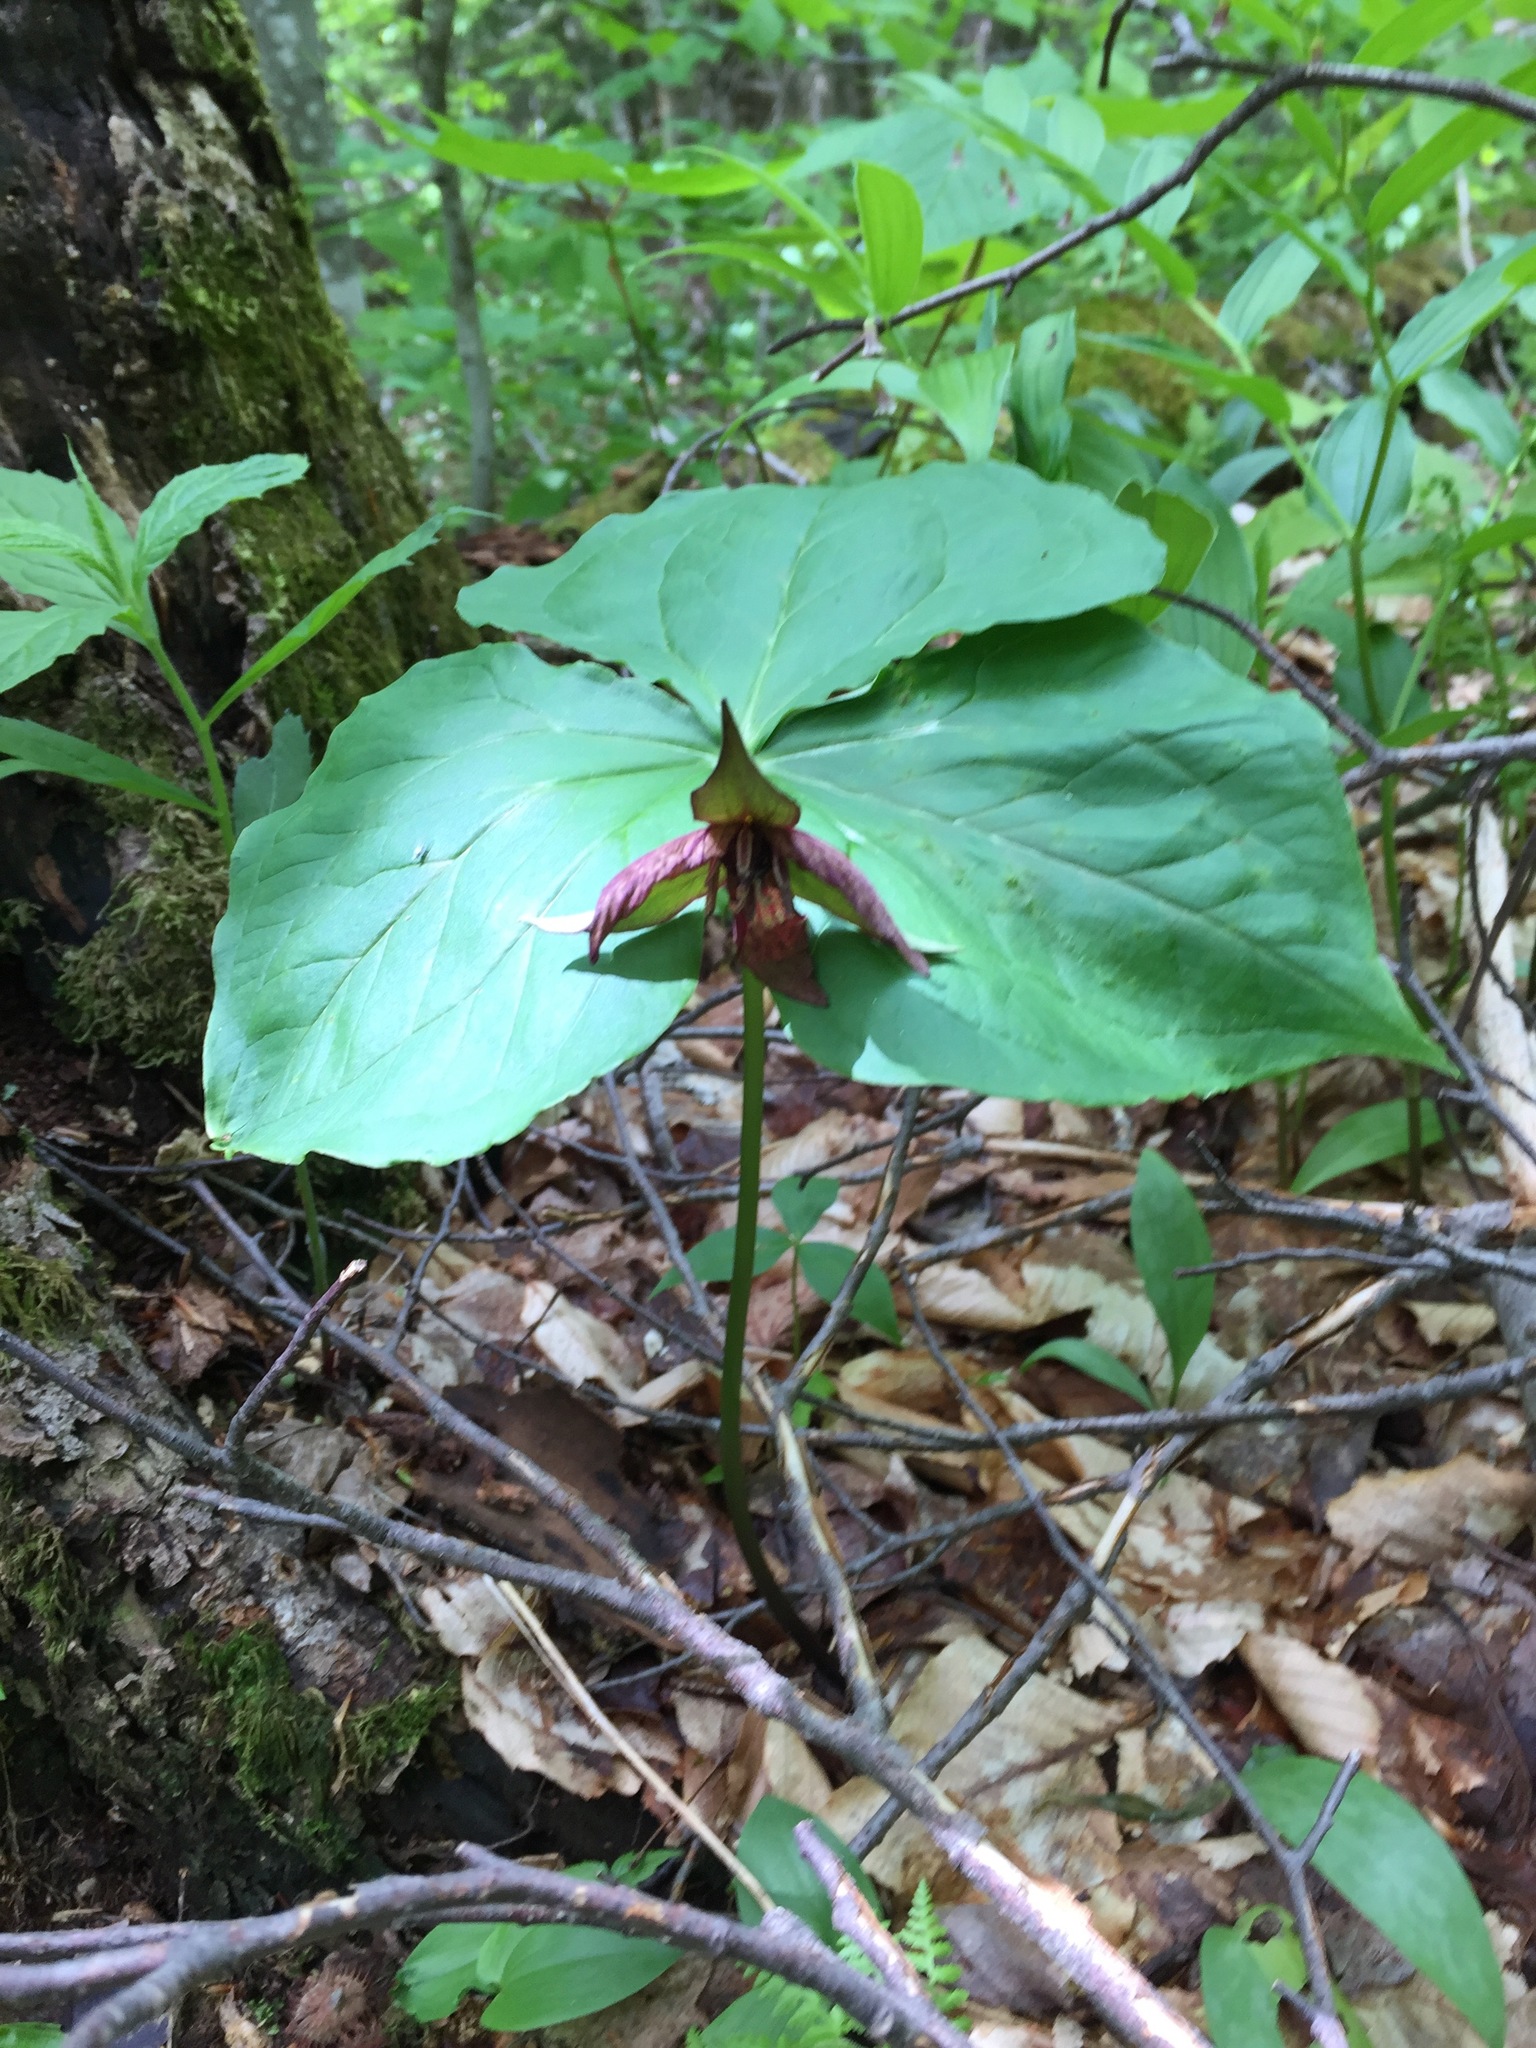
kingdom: Plantae
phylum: Tracheophyta
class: Liliopsida
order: Liliales
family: Melanthiaceae
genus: Trillium
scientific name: Trillium erectum
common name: Purple trillium
